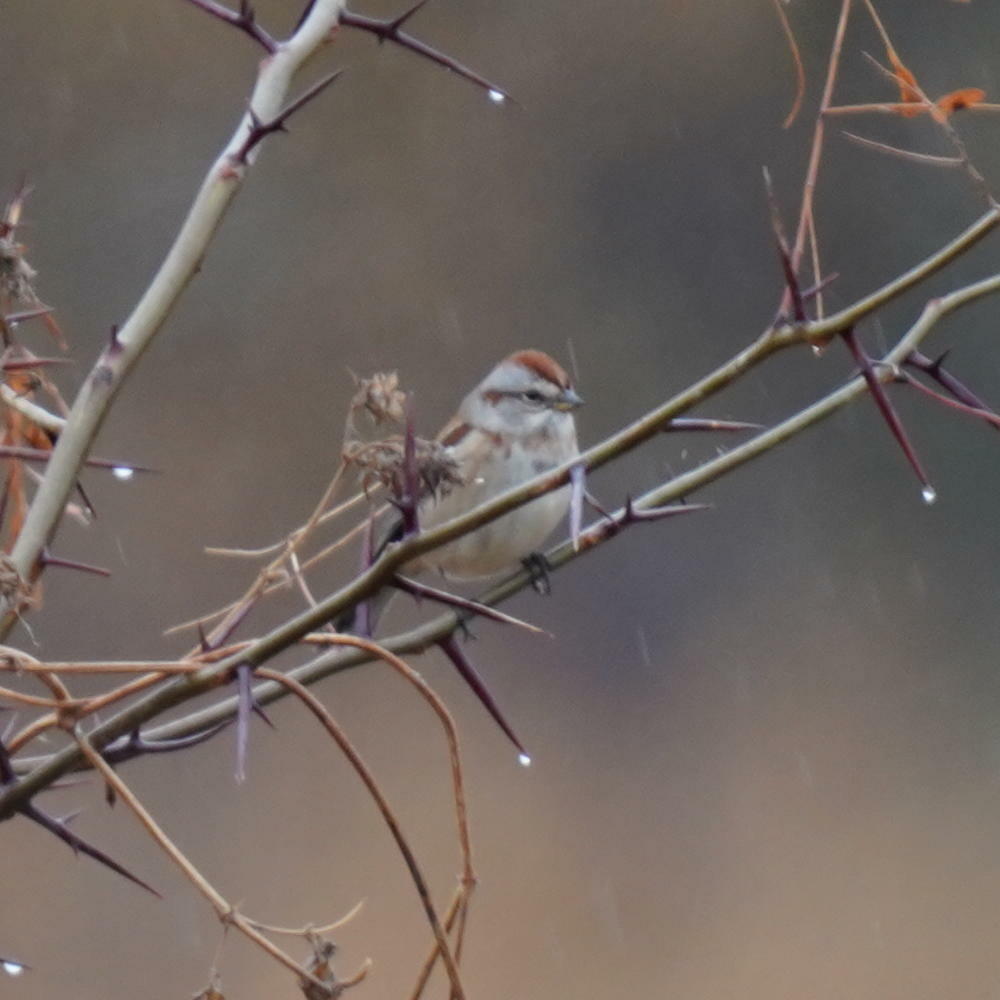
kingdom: Animalia
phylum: Chordata
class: Aves
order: Passeriformes
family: Passerellidae
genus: Spizelloides
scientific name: Spizelloides arborea
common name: American tree sparrow
